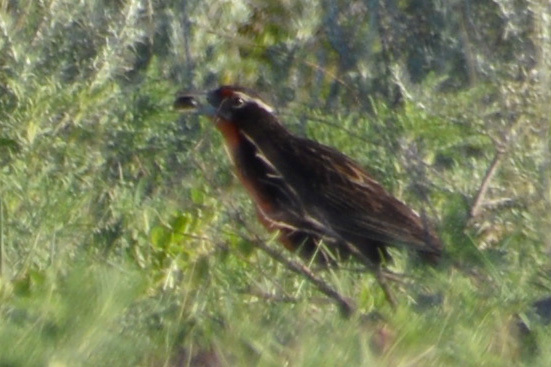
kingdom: Animalia
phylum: Chordata
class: Aves
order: Passeriformes
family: Icteridae
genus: Sturnella
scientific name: Sturnella loyca
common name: Long-tailed meadowlark
